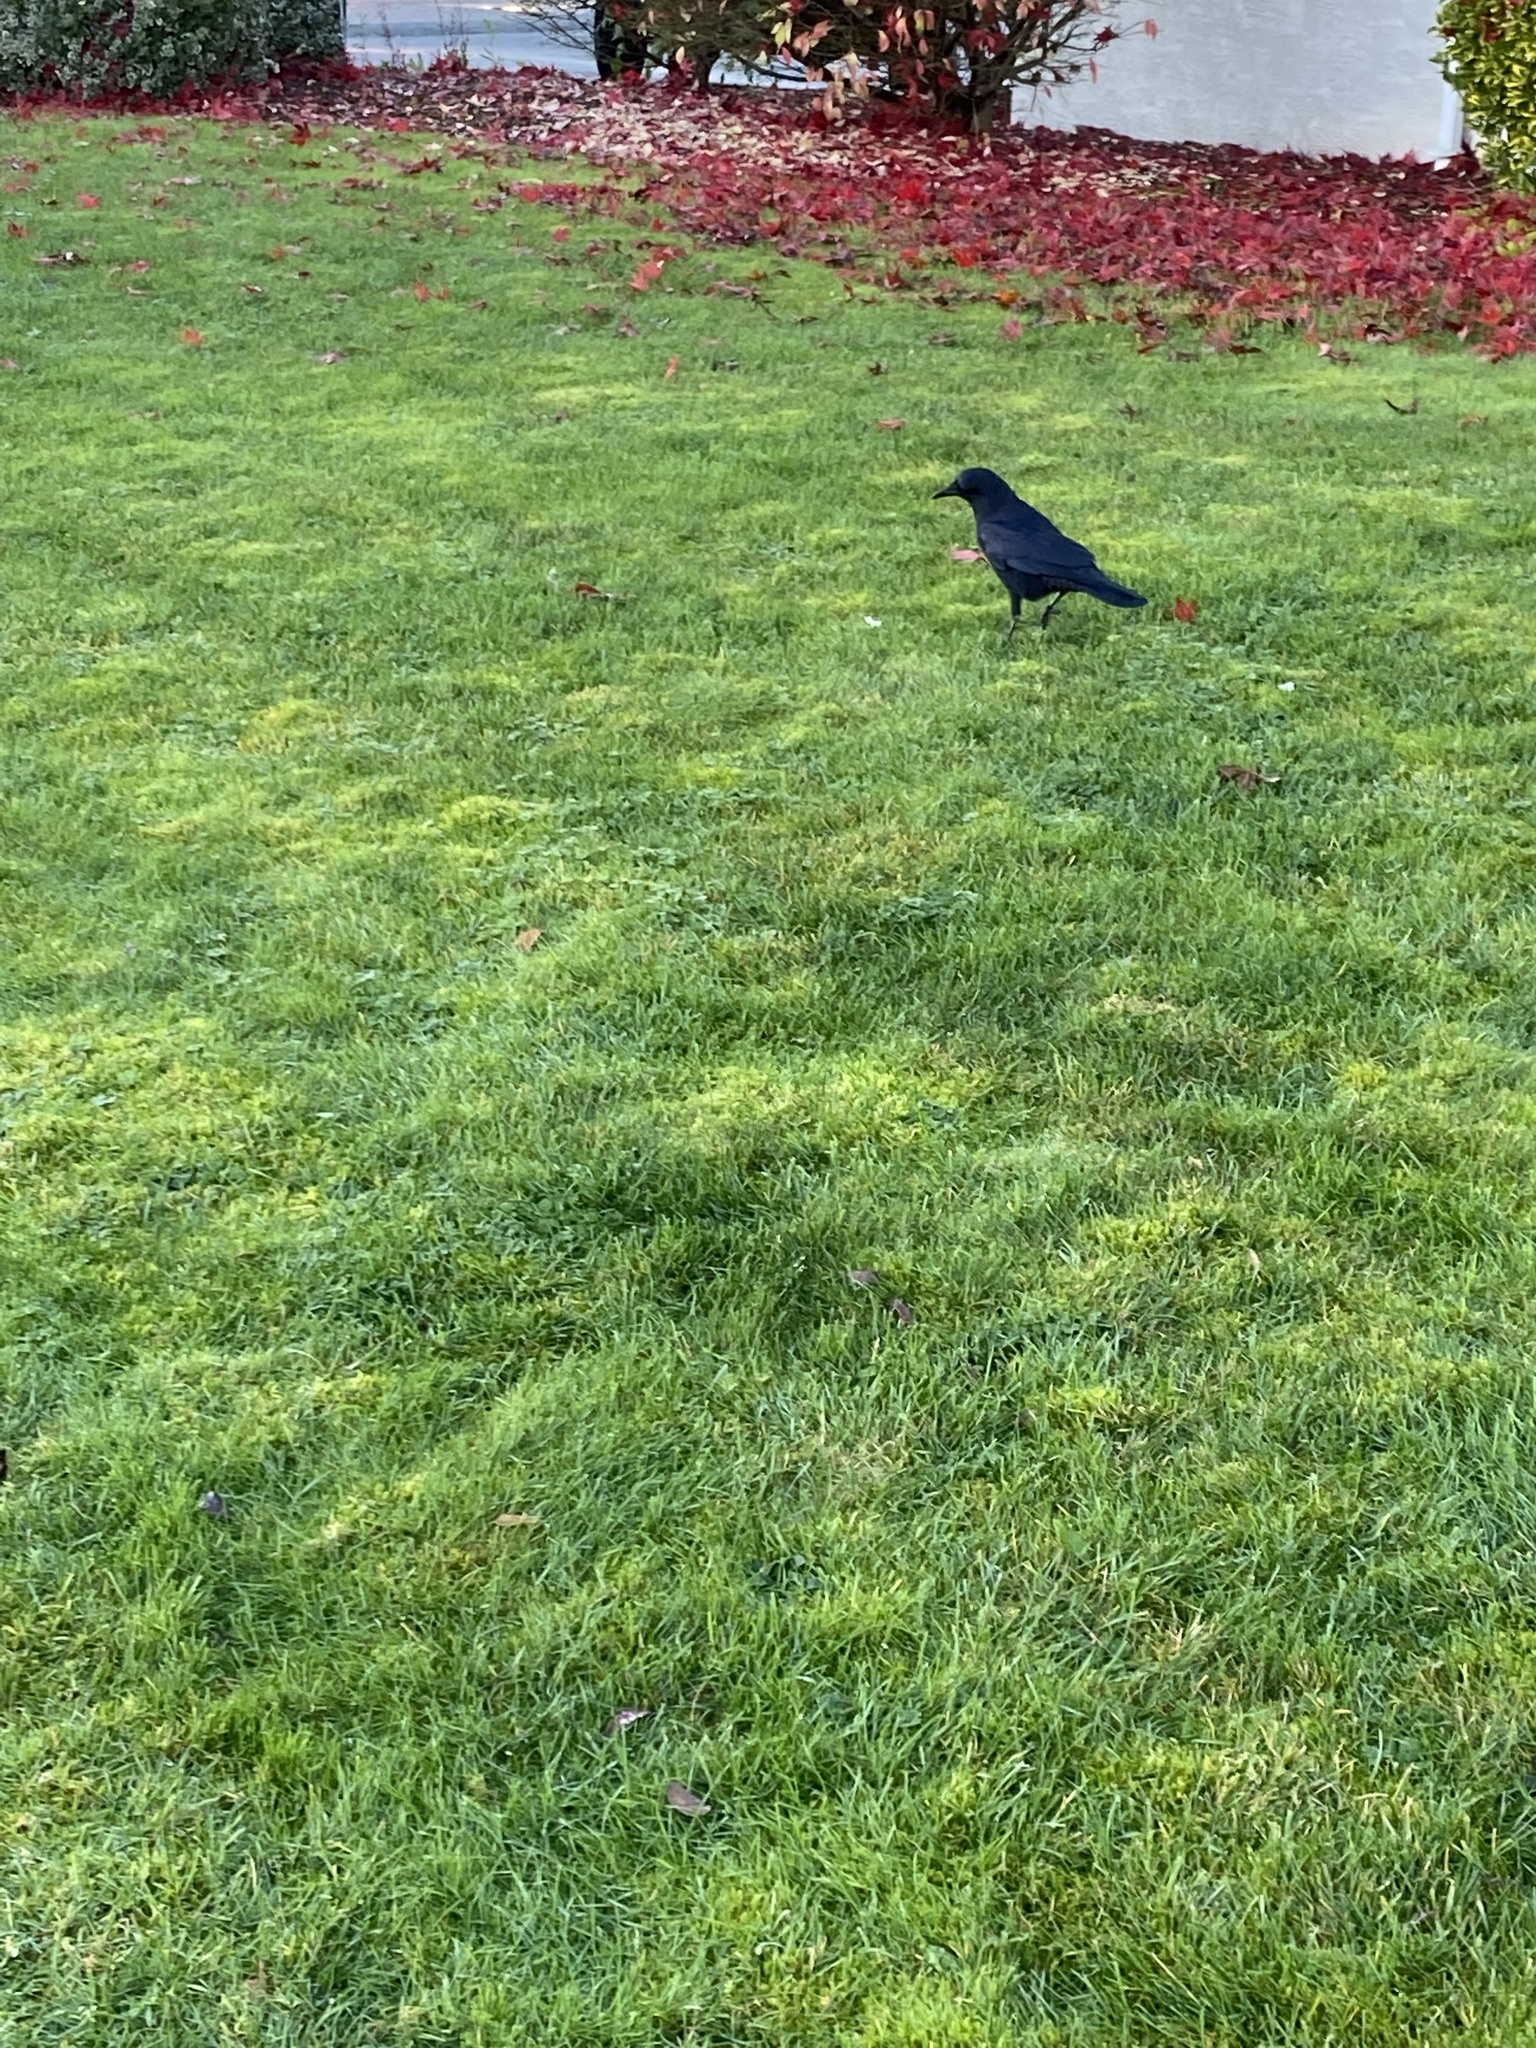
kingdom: Animalia
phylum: Chordata
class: Aves
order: Passeriformes
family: Corvidae
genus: Corvus
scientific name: Corvus brachyrhynchos
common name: American crow
